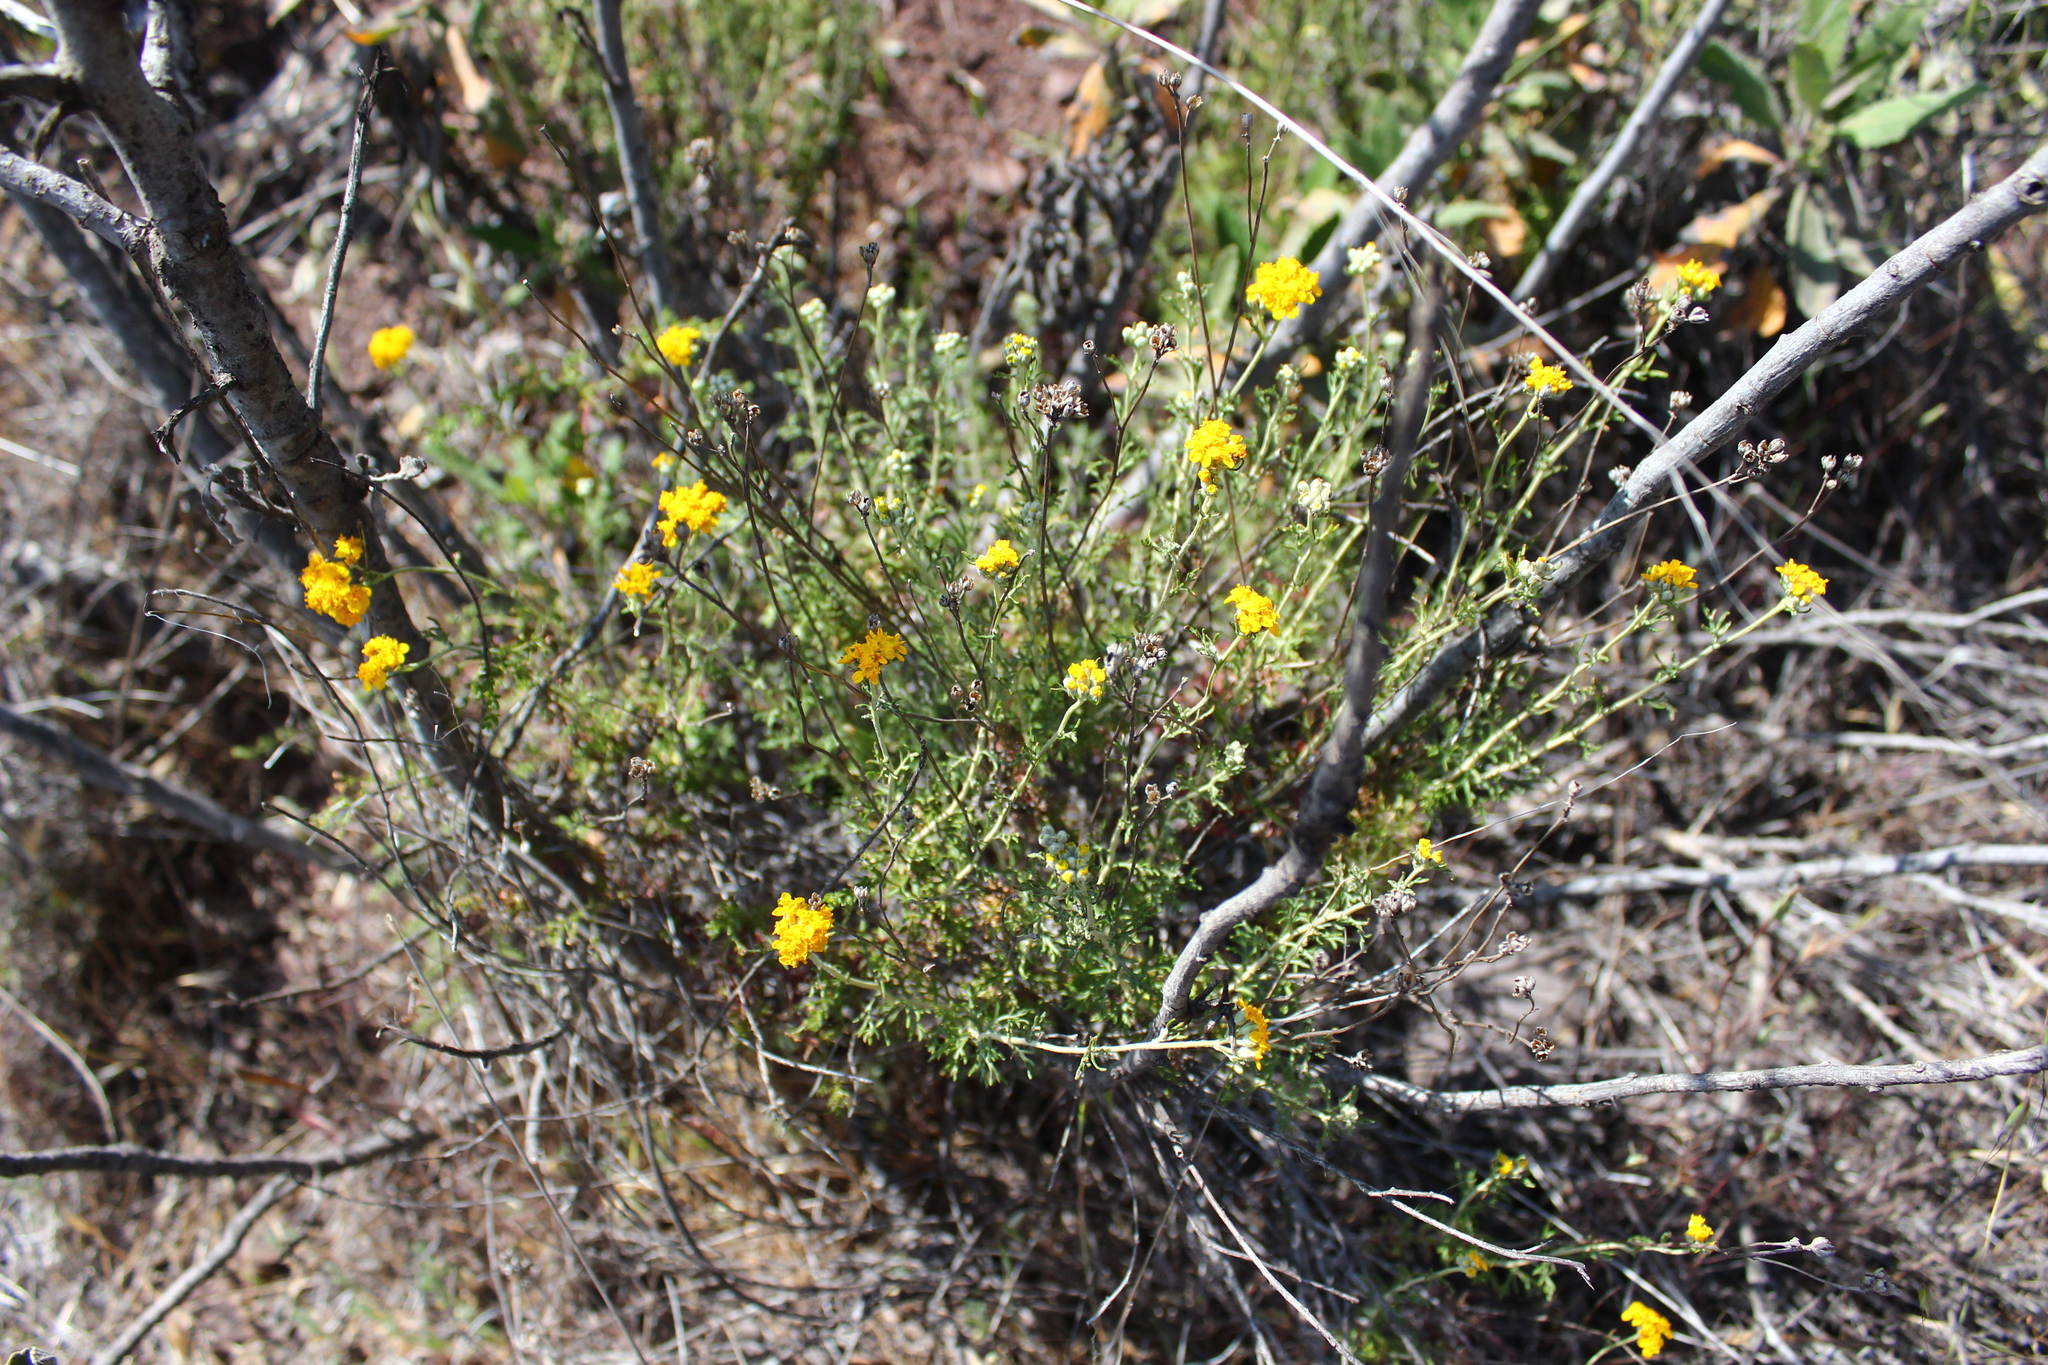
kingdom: Plantae
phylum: Tracheophyta
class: Magnoliopsida
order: Asterales
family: Asteraceae
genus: Eriophyllum
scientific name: Eriophyllum confertiflorum
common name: Golden-yarrow
